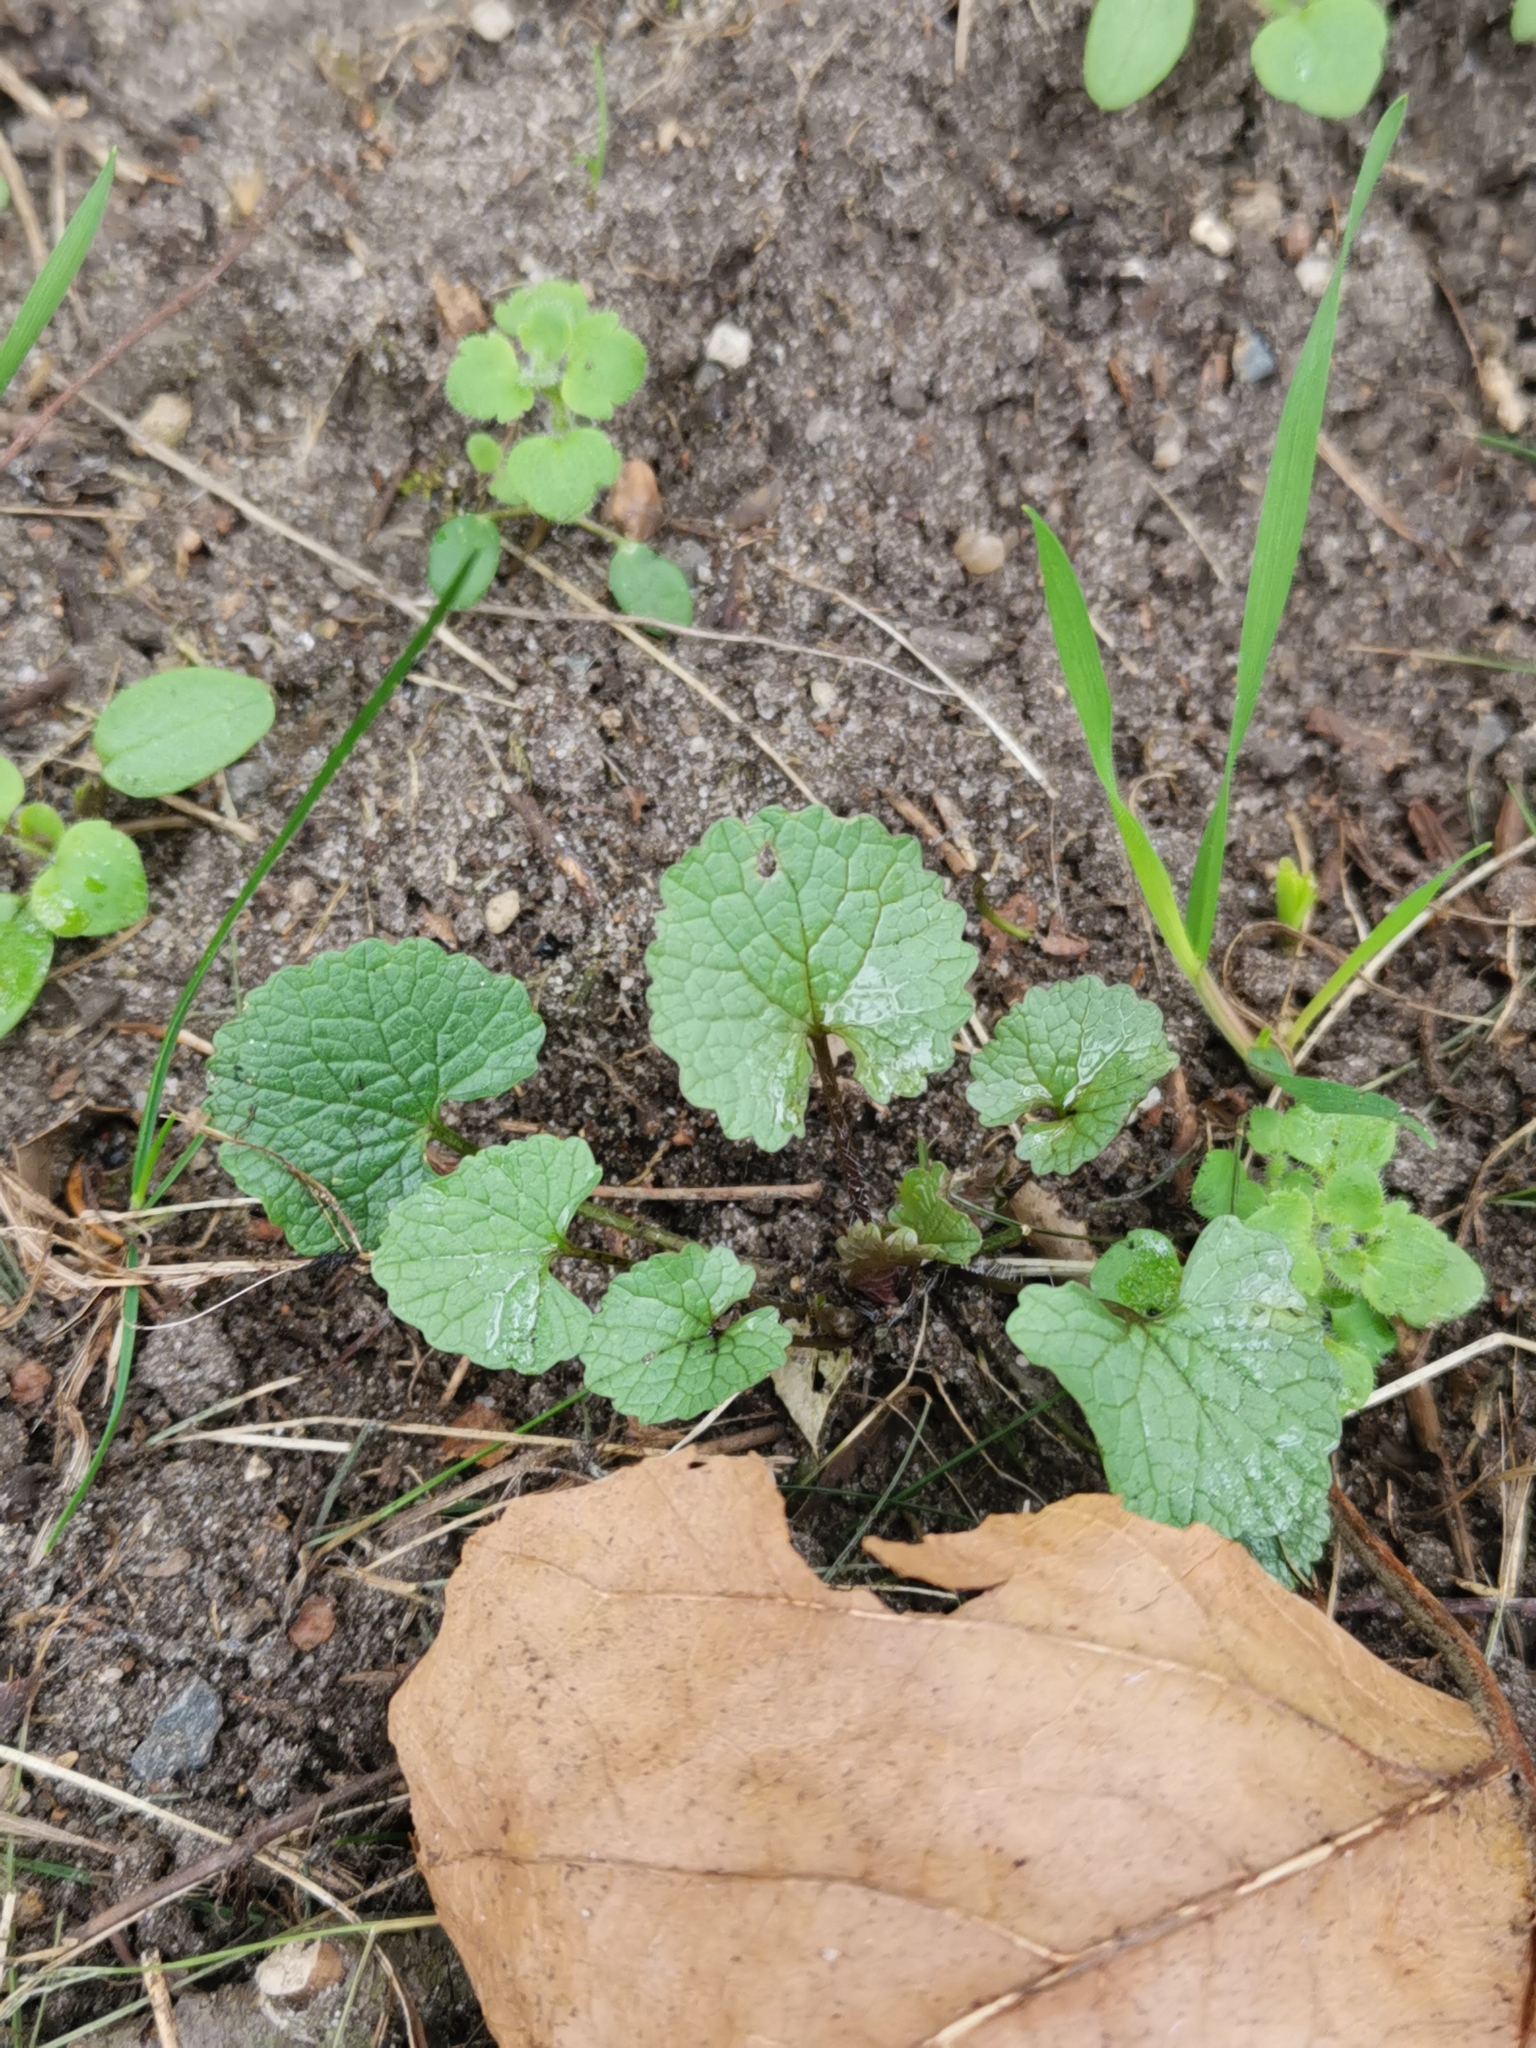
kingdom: Plantae
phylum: Tracheophyta
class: Magnoliopsida
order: Brassicales
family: Brassicaceae
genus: Alliaria
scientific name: Alliaria petiolata
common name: Garlic mustard
